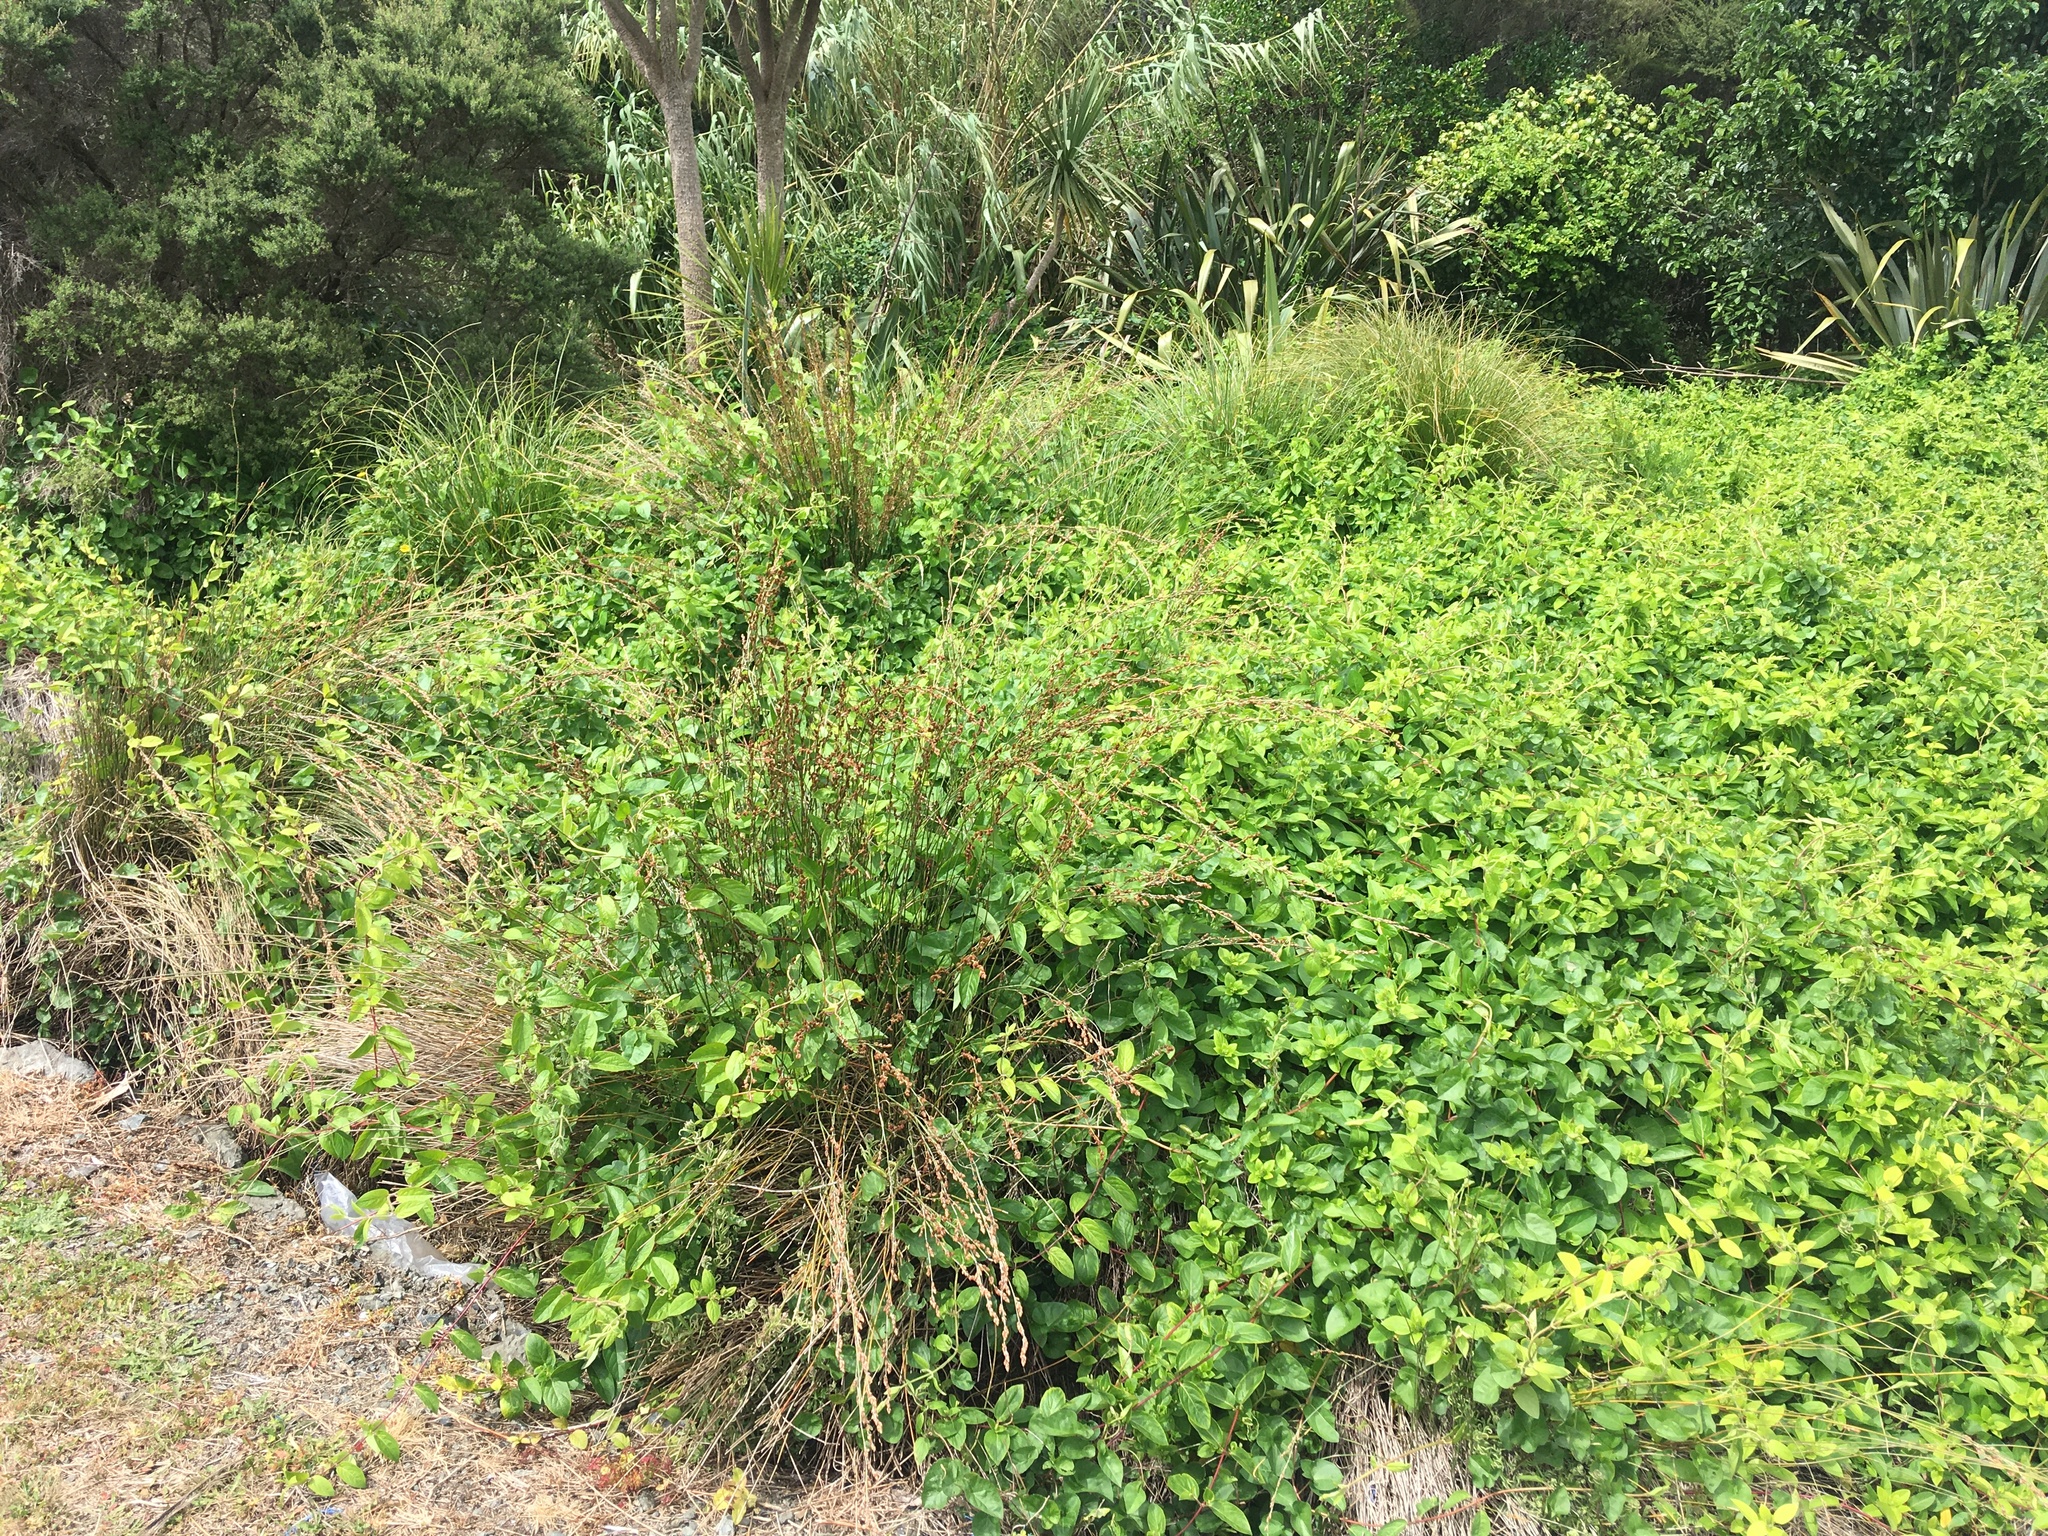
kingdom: Plantae
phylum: Tracheophyta
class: Liliopsida
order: Poales
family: Restionaceae
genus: Apodasmia
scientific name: Apodasmia similis
